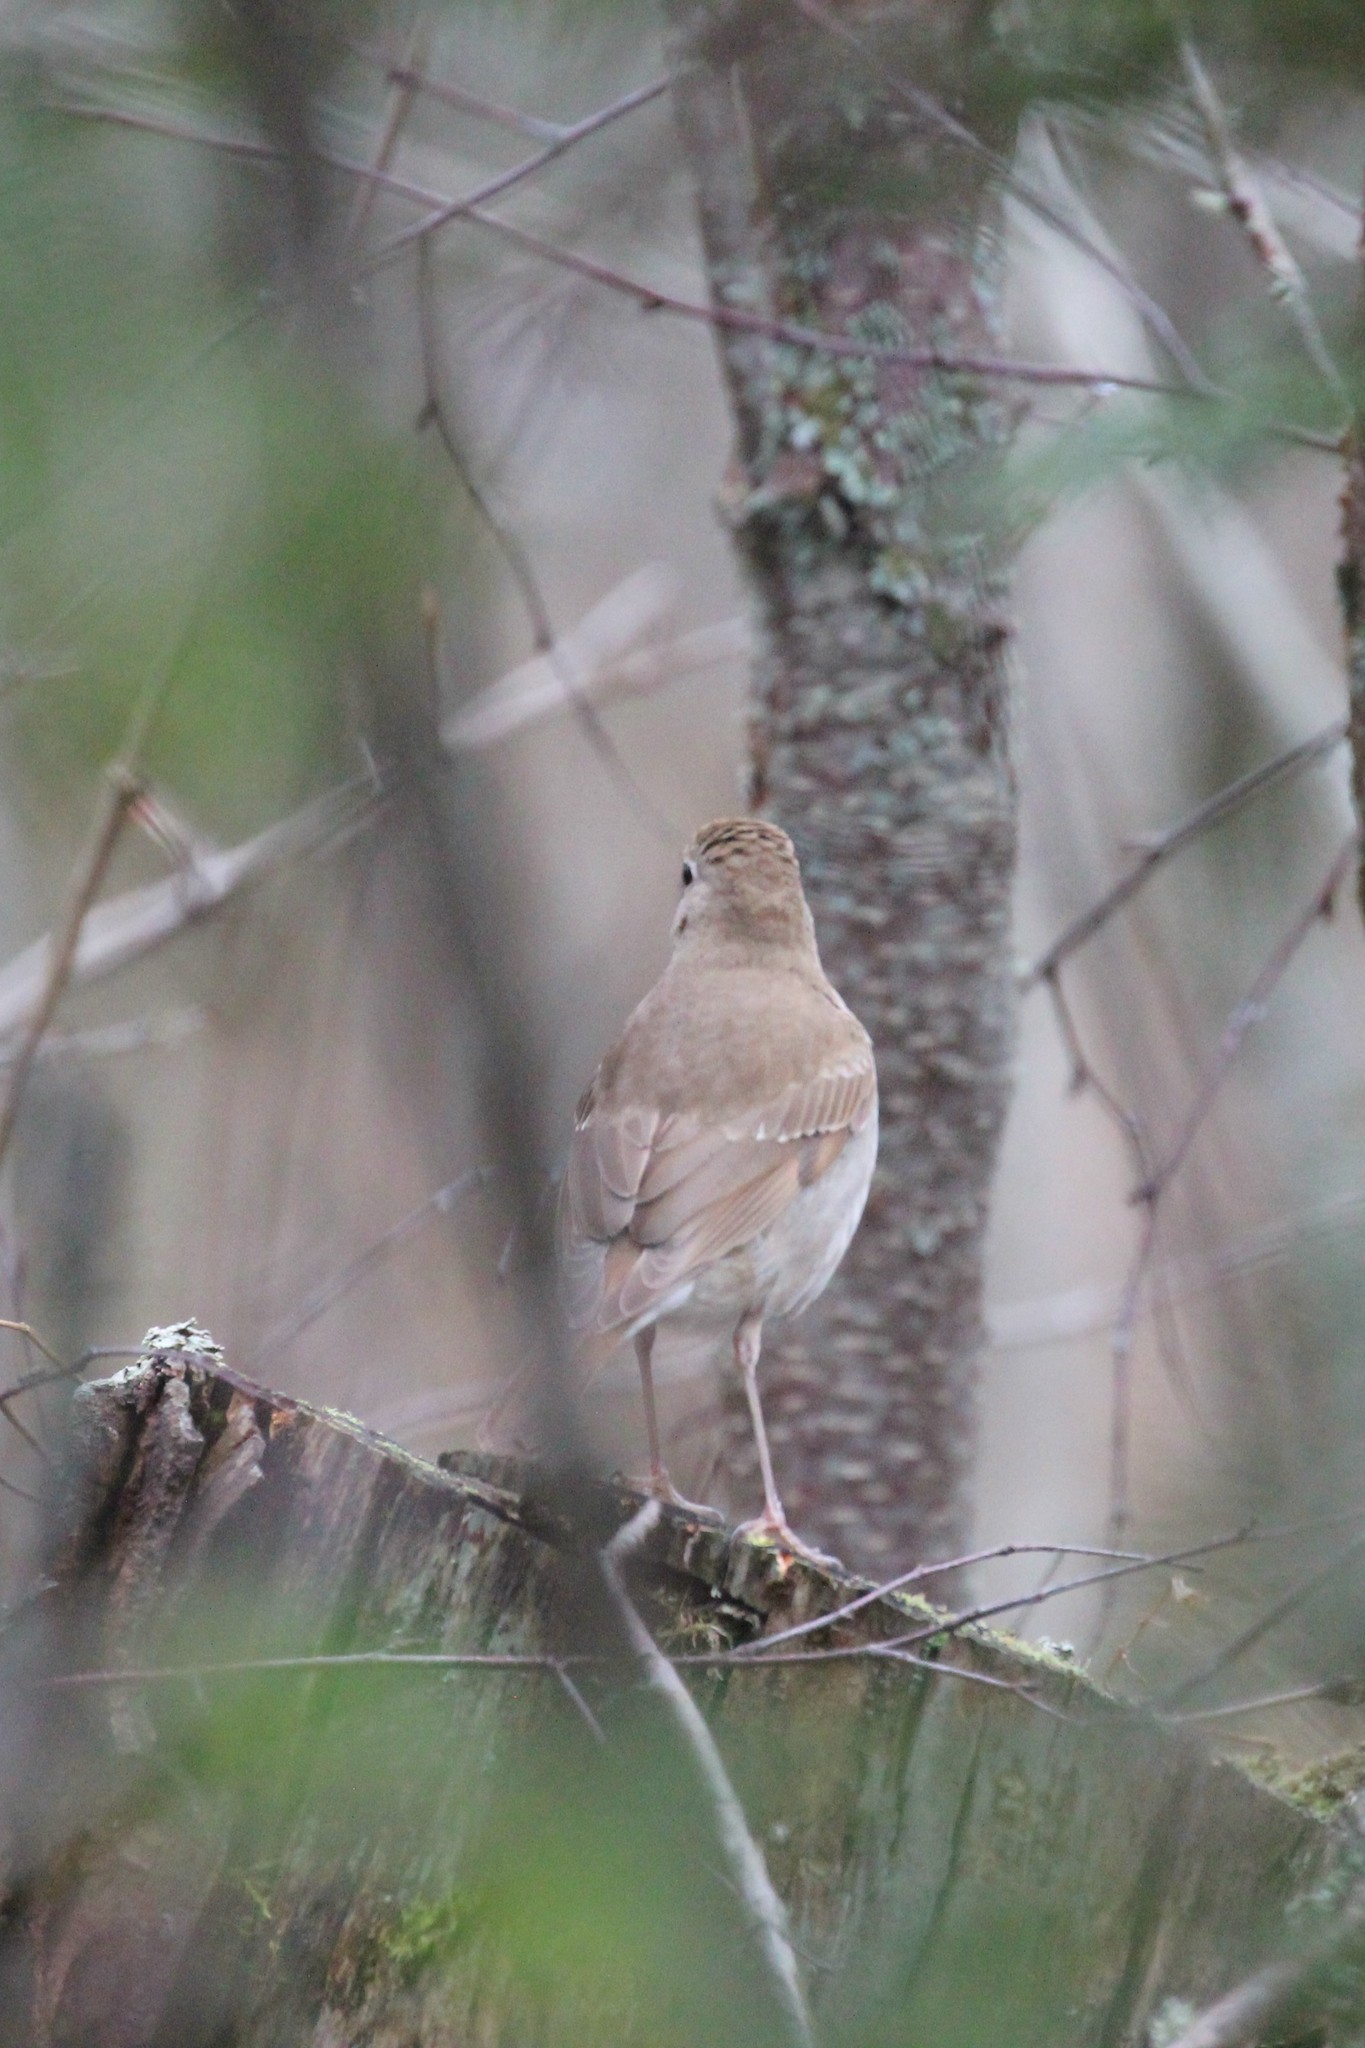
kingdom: Animalia
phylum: Chordata
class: Aves
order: Passeriformes
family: Turdidae
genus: Catharus
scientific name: Catharus guttatus
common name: Hermit thrush
